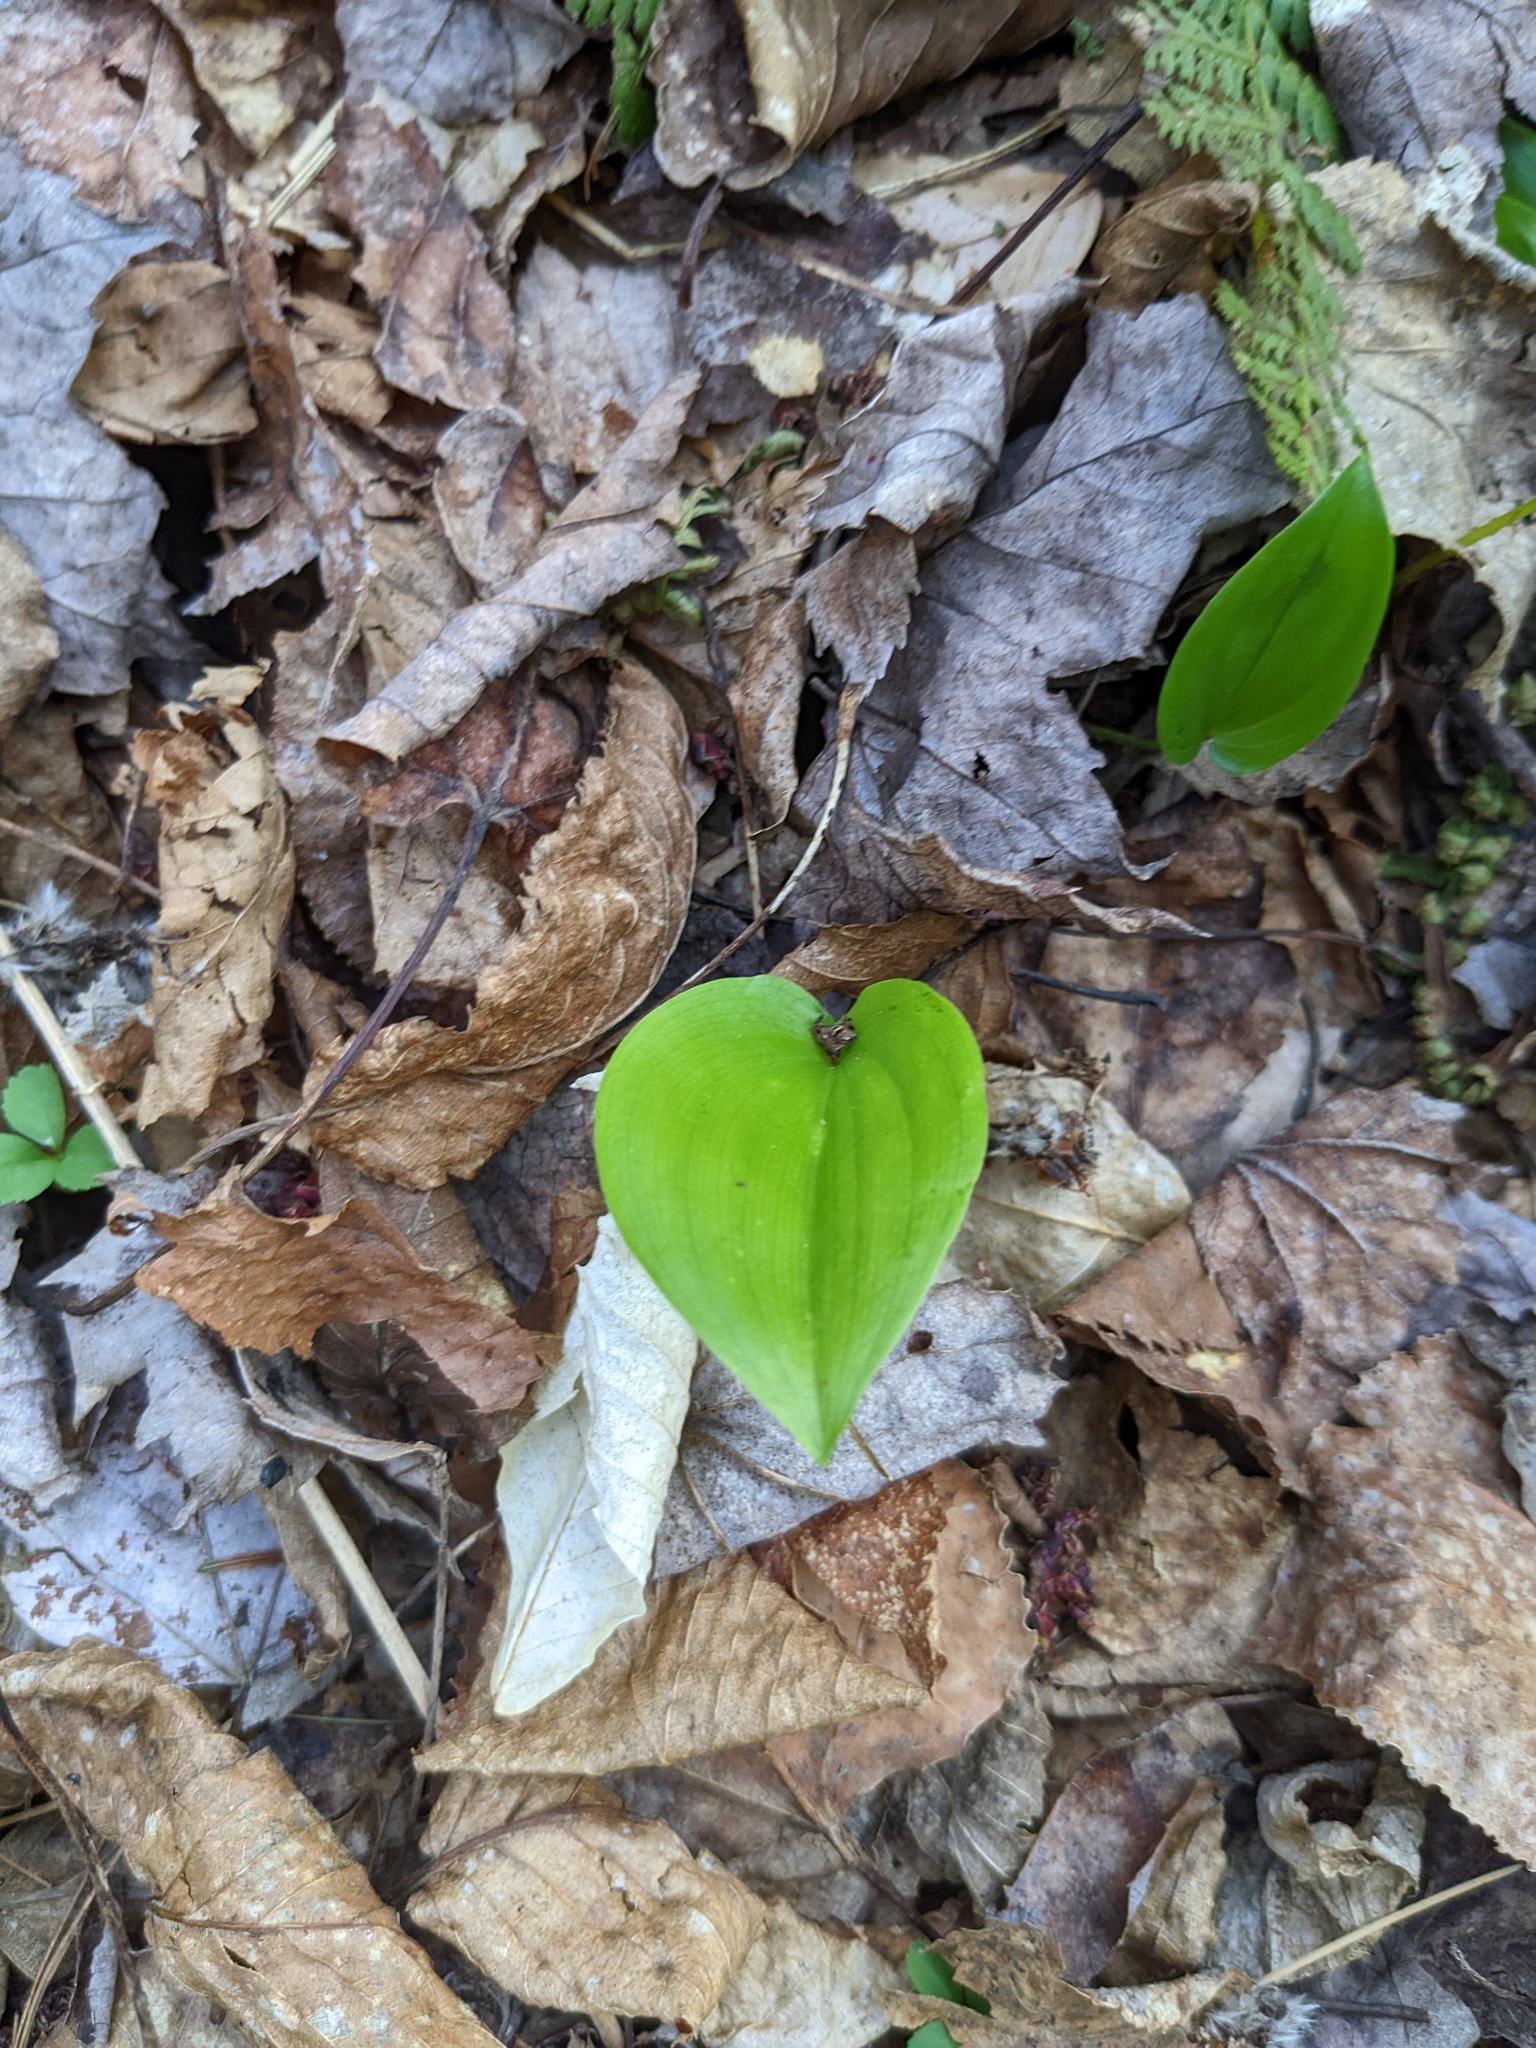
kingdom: Plantae
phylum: Tracheophyta
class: Liliopsida
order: Asparagales
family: Asparagaceae
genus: Maianthemum
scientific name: Maianthemum canadense
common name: False lily-of-the-valley
